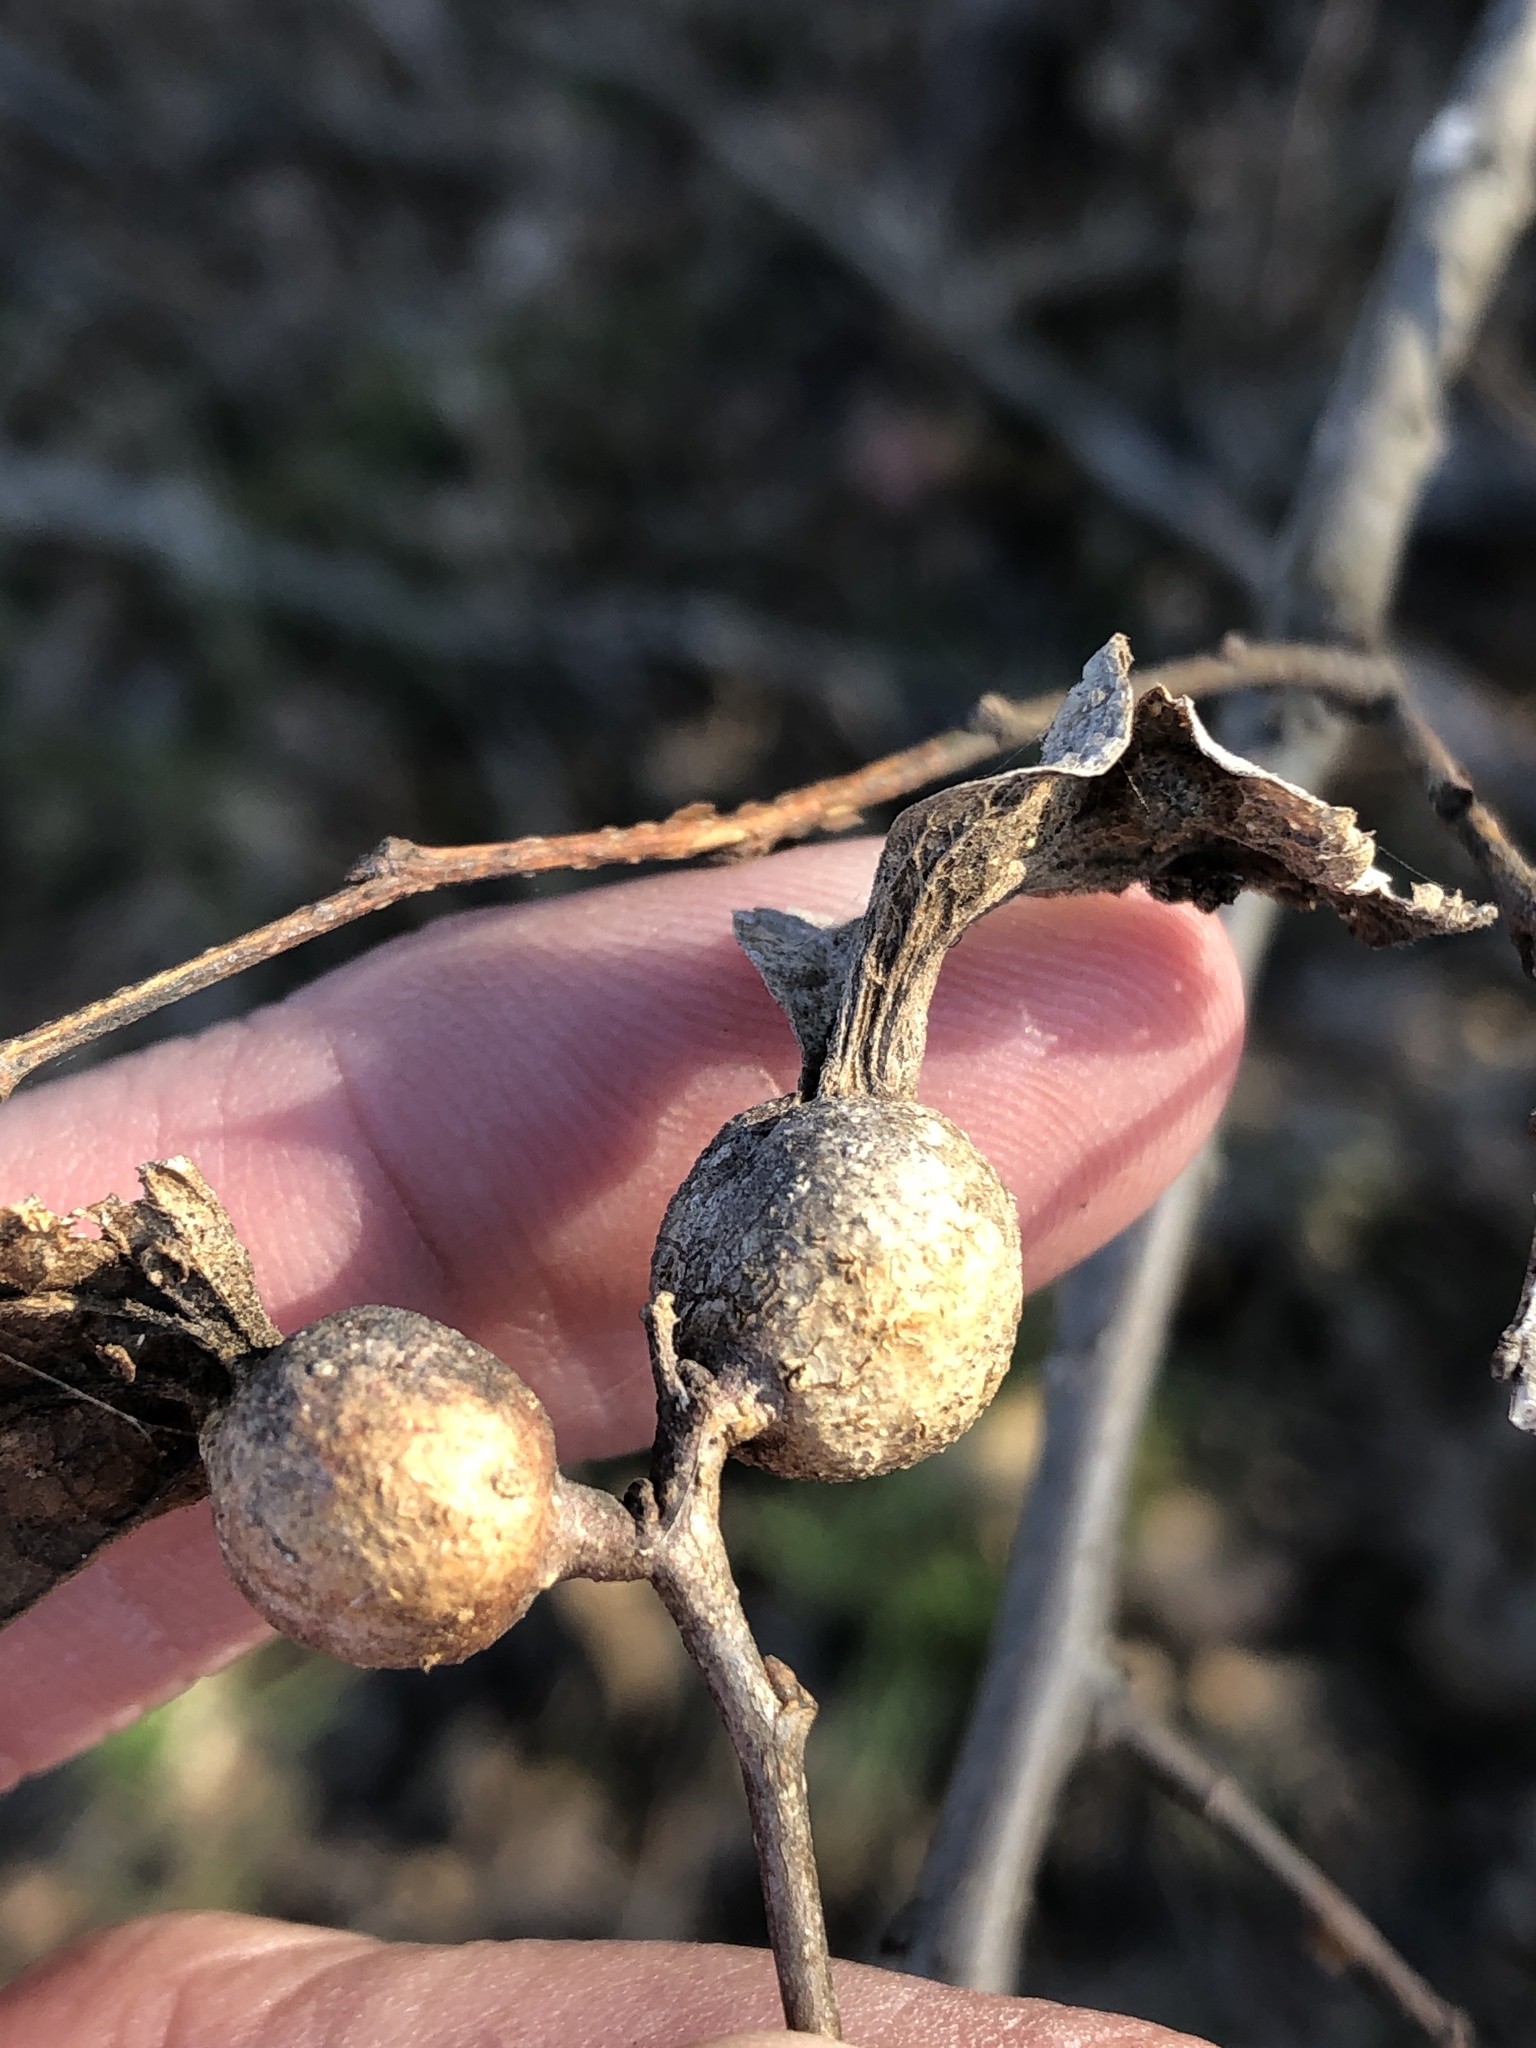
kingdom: Animalia
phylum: Arthropoda
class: Insecta
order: Hemiptera
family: Aphalaridae
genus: Pachypsylla
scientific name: Pachypsylla venusta
